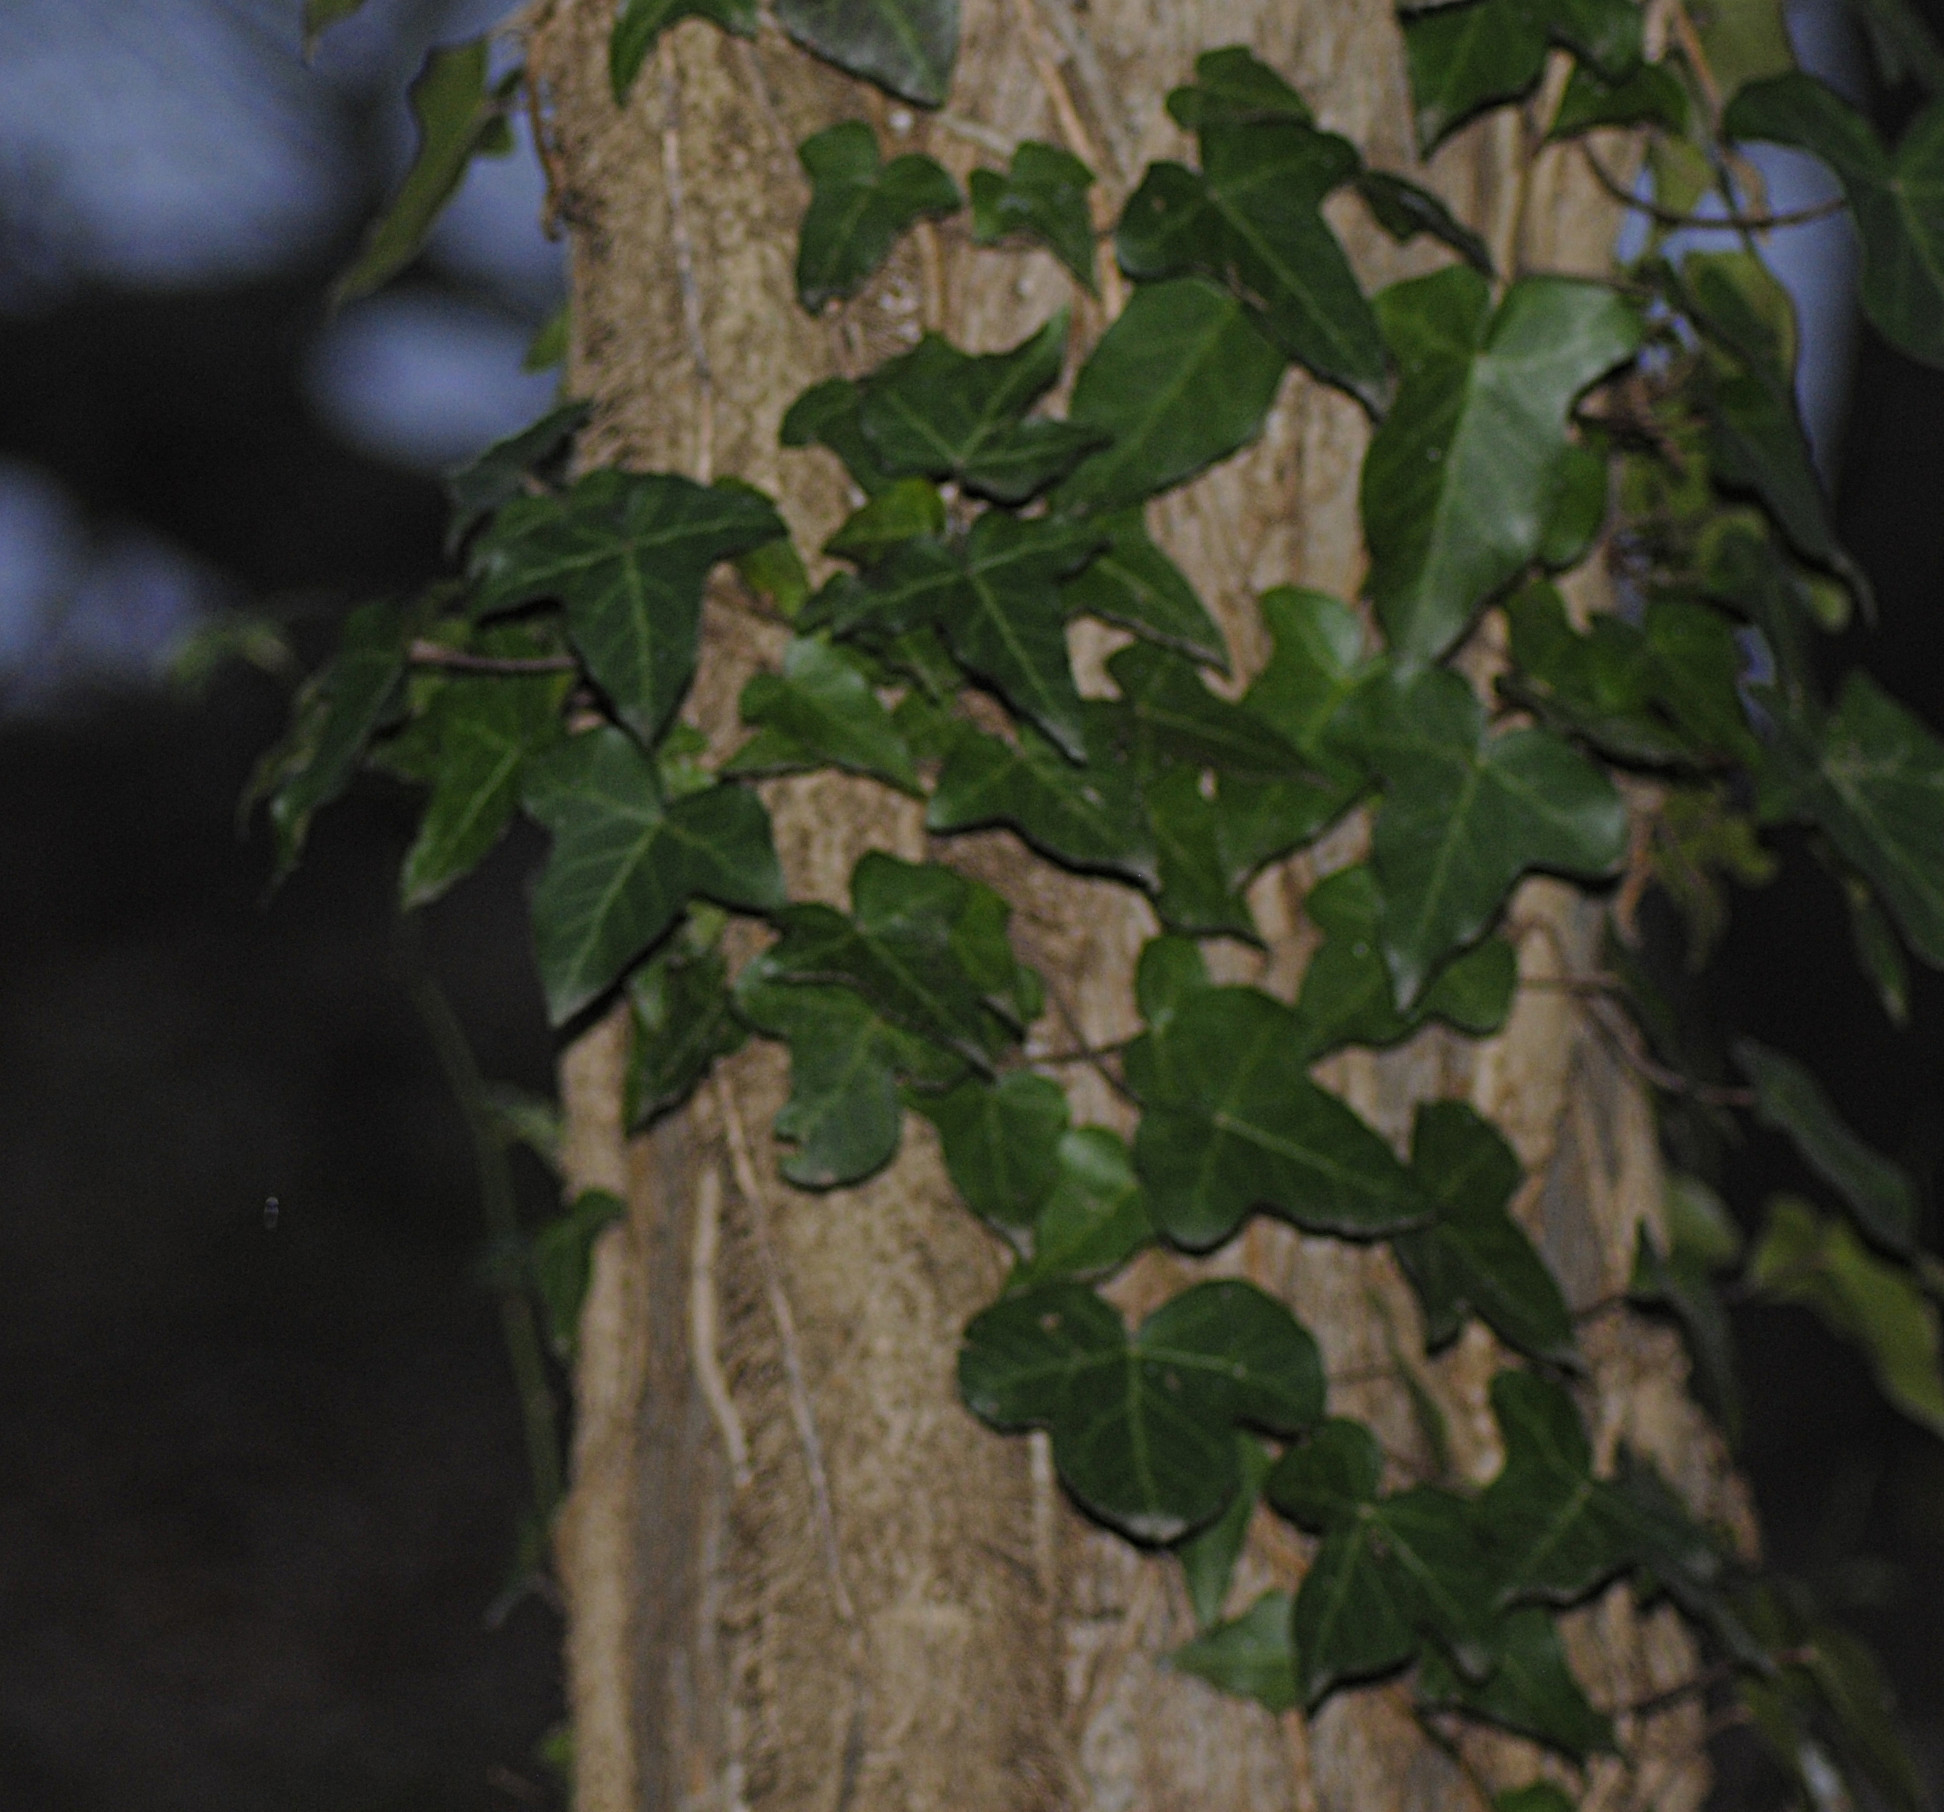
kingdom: Plantae
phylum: Tracheophyta
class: Magnoliopsida
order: Apiales
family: Araliaceae
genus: Hedera
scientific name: Hedera helix
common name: Ivy
